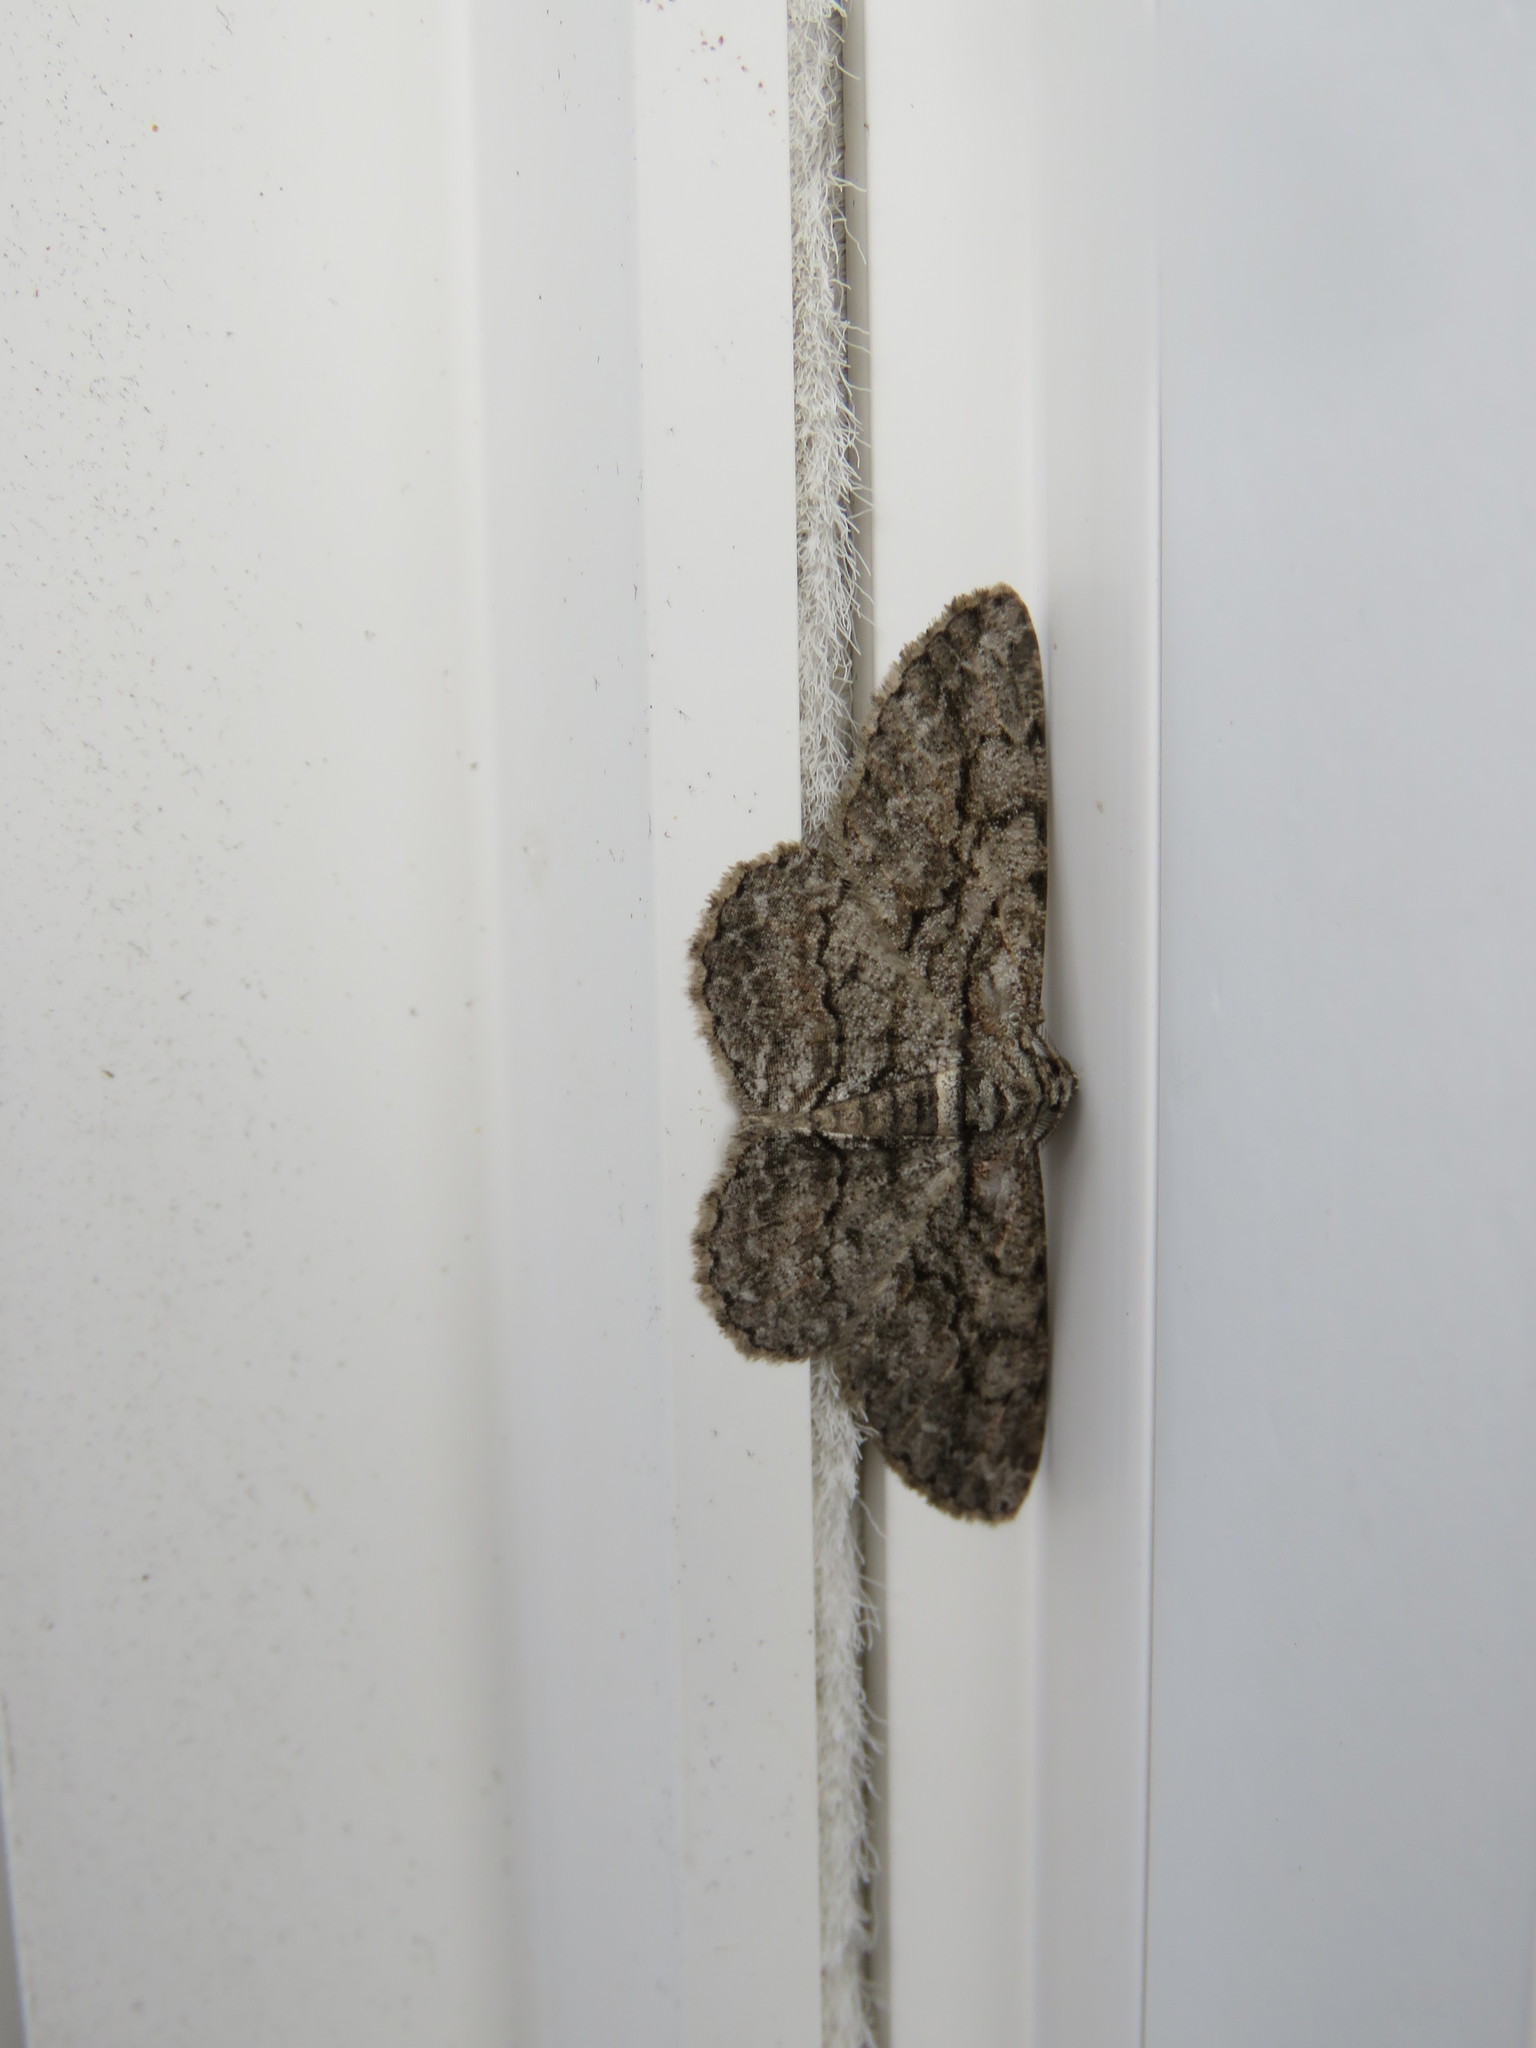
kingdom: Animalia
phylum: Arthropoda
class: Insecta
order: Lepidoptera
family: Geometridae
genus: Anavitrinella
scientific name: Anavitrinella pampinaria
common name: Common gray
